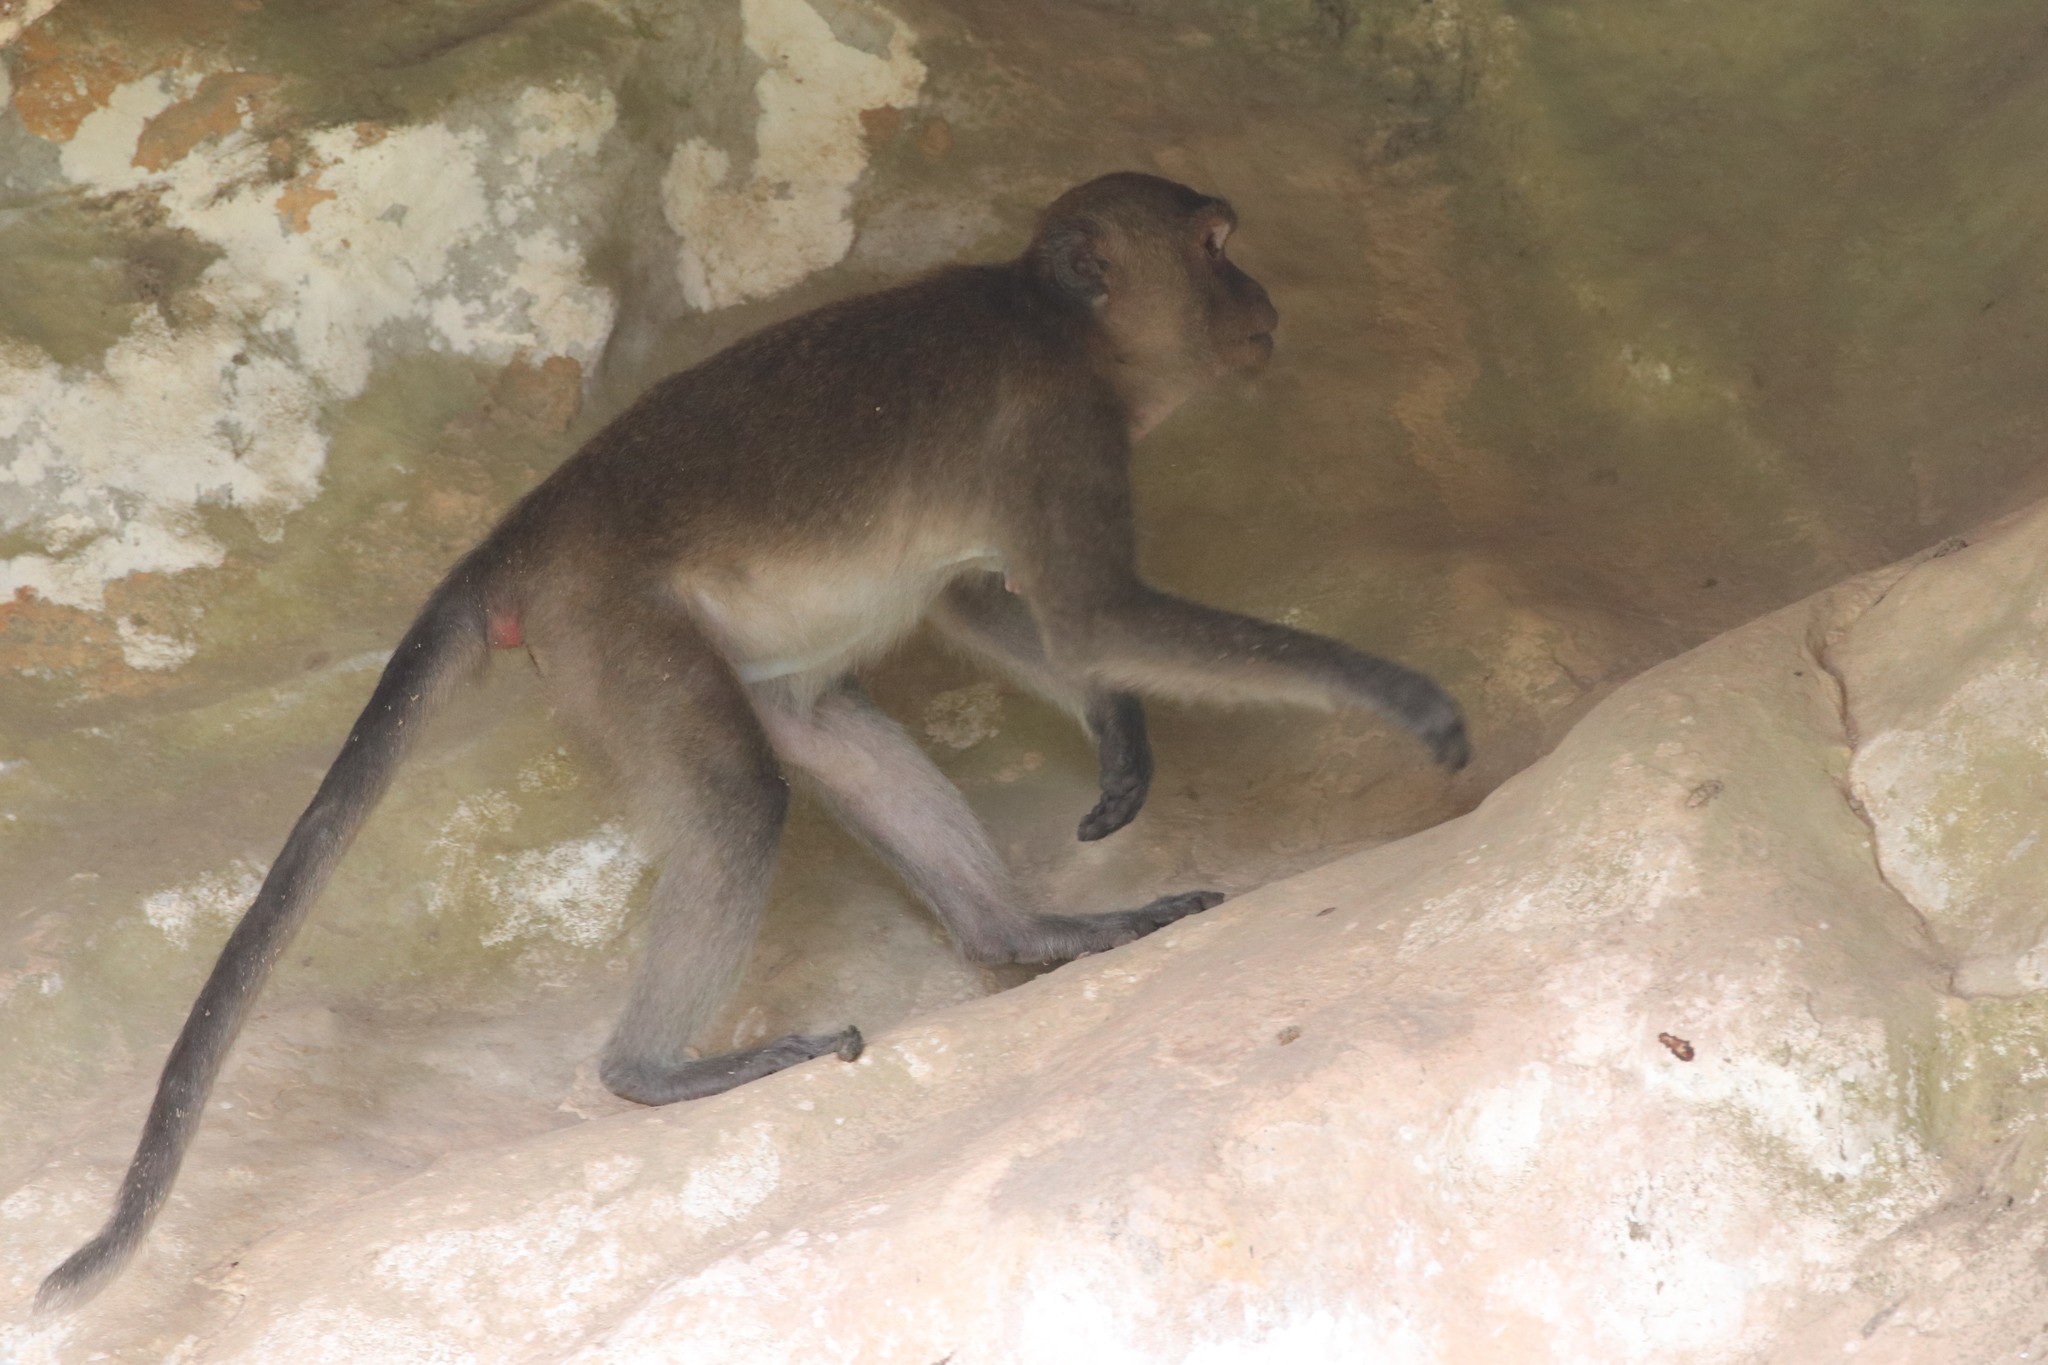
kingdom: Animalia
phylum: Chordata
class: Mammalia
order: Primates
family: Cercopithecidae
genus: Macaca
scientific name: Macaca fascicularis
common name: Crab-eating macaque
